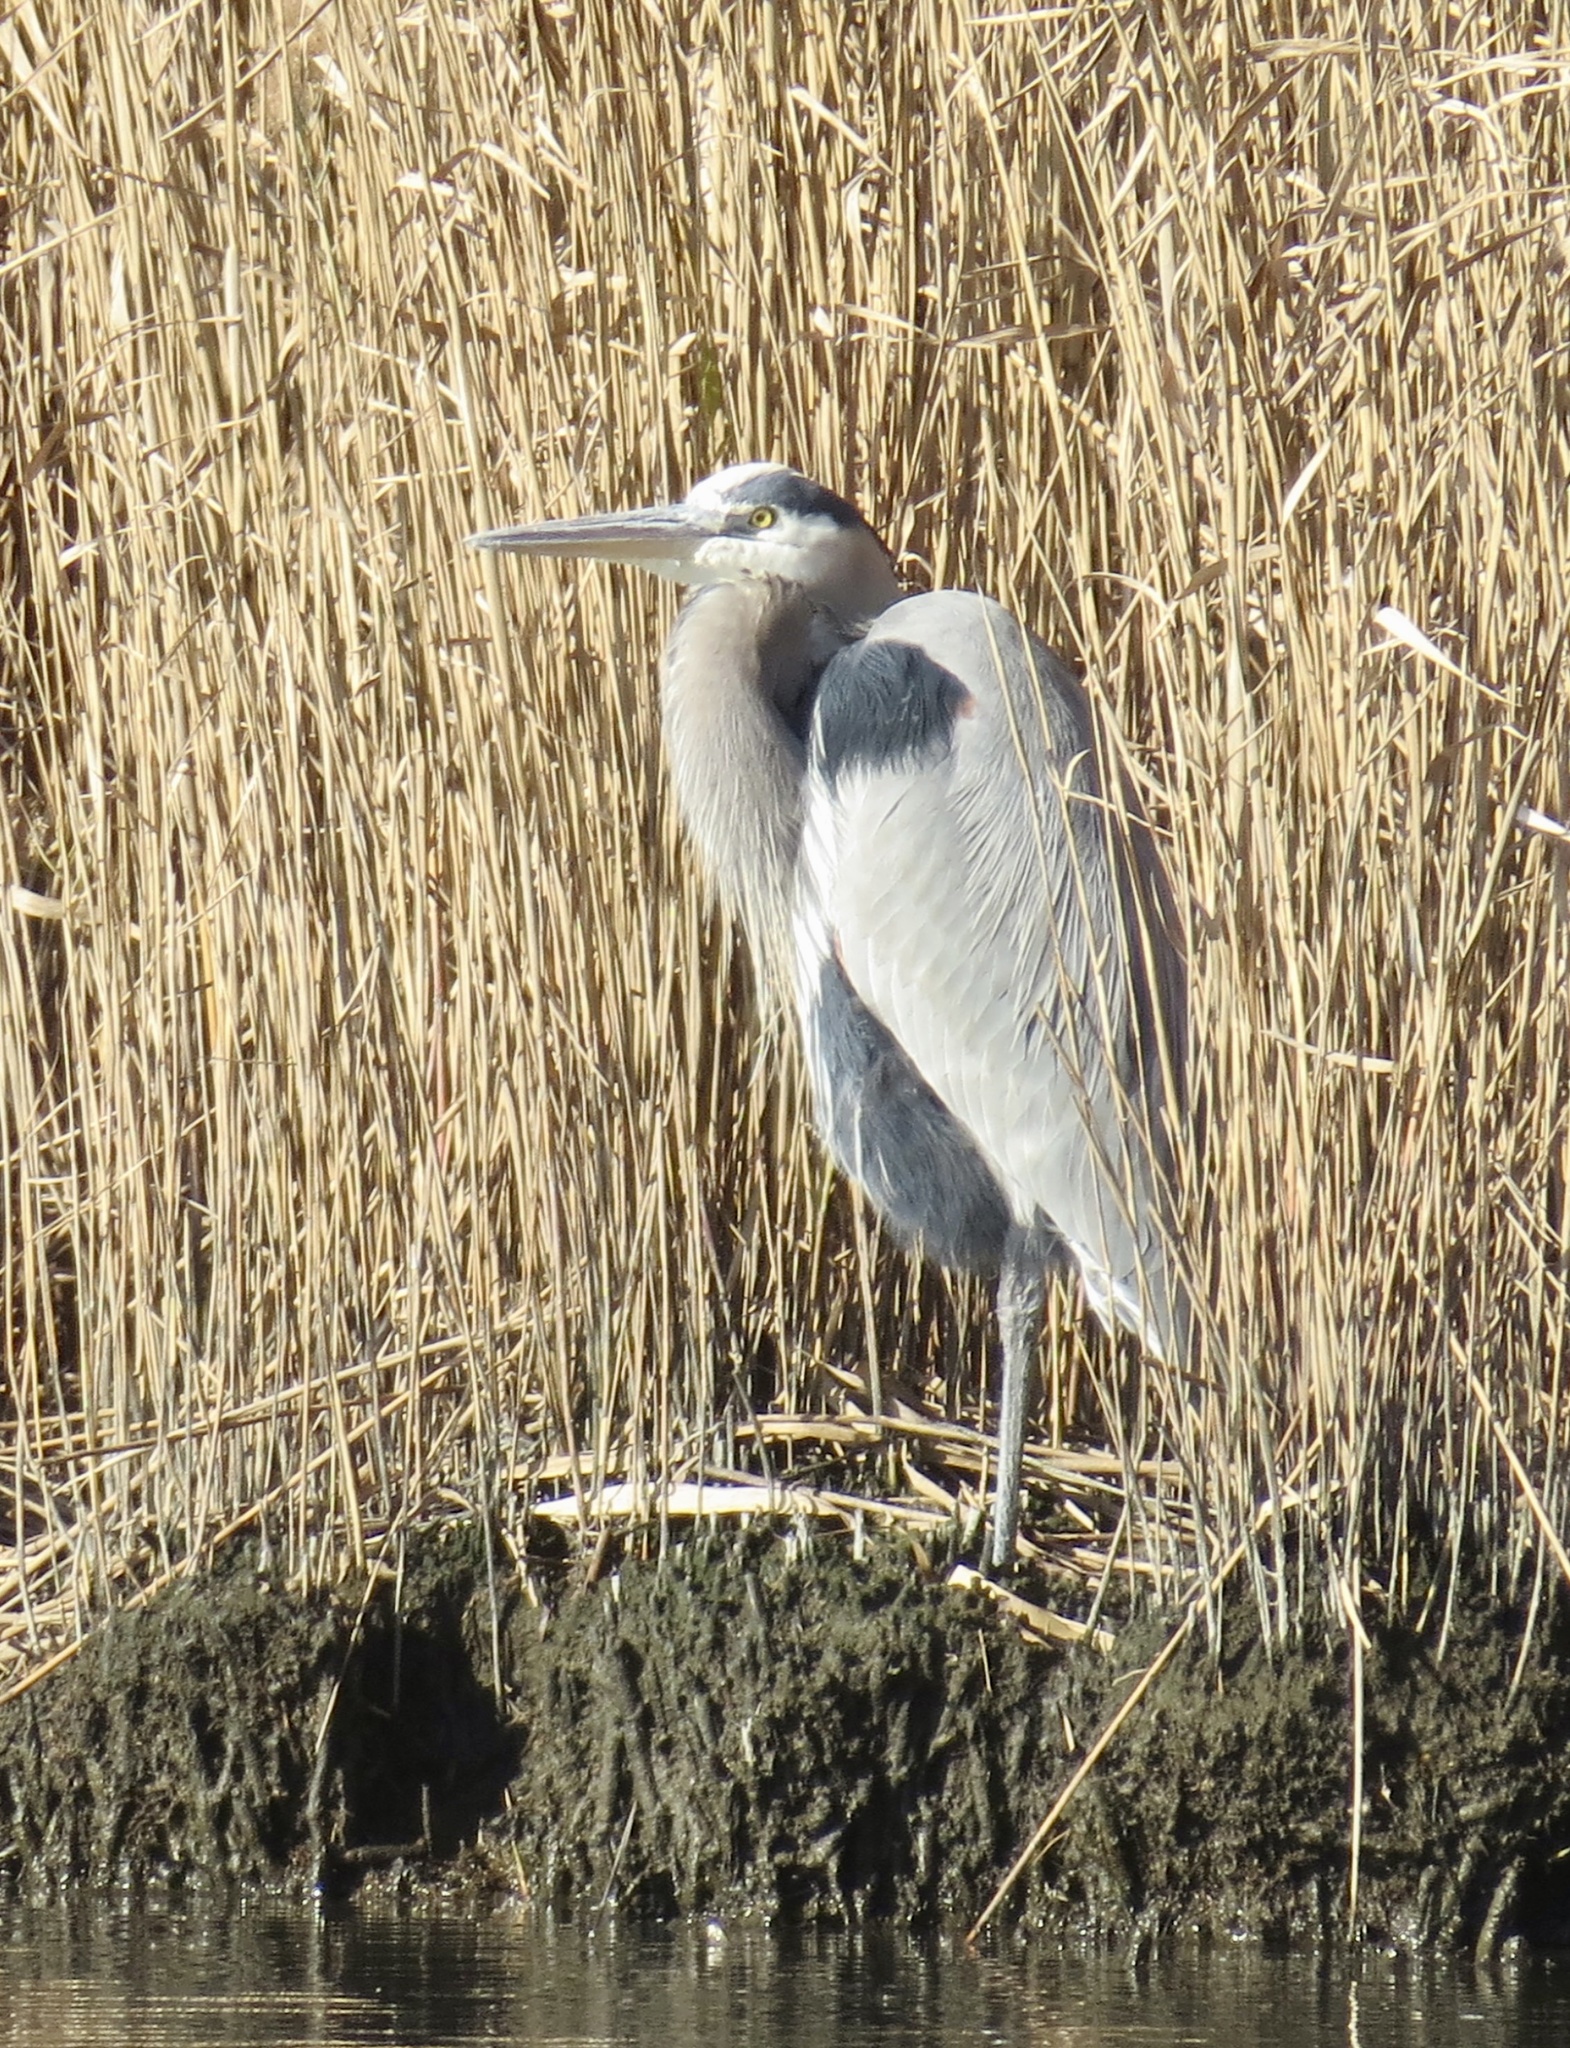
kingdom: Animalia
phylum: Chordata
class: Aves
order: Pelecaniformes
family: Ardeidae
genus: Ardea
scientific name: Ardea herodias
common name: Great blue heron
